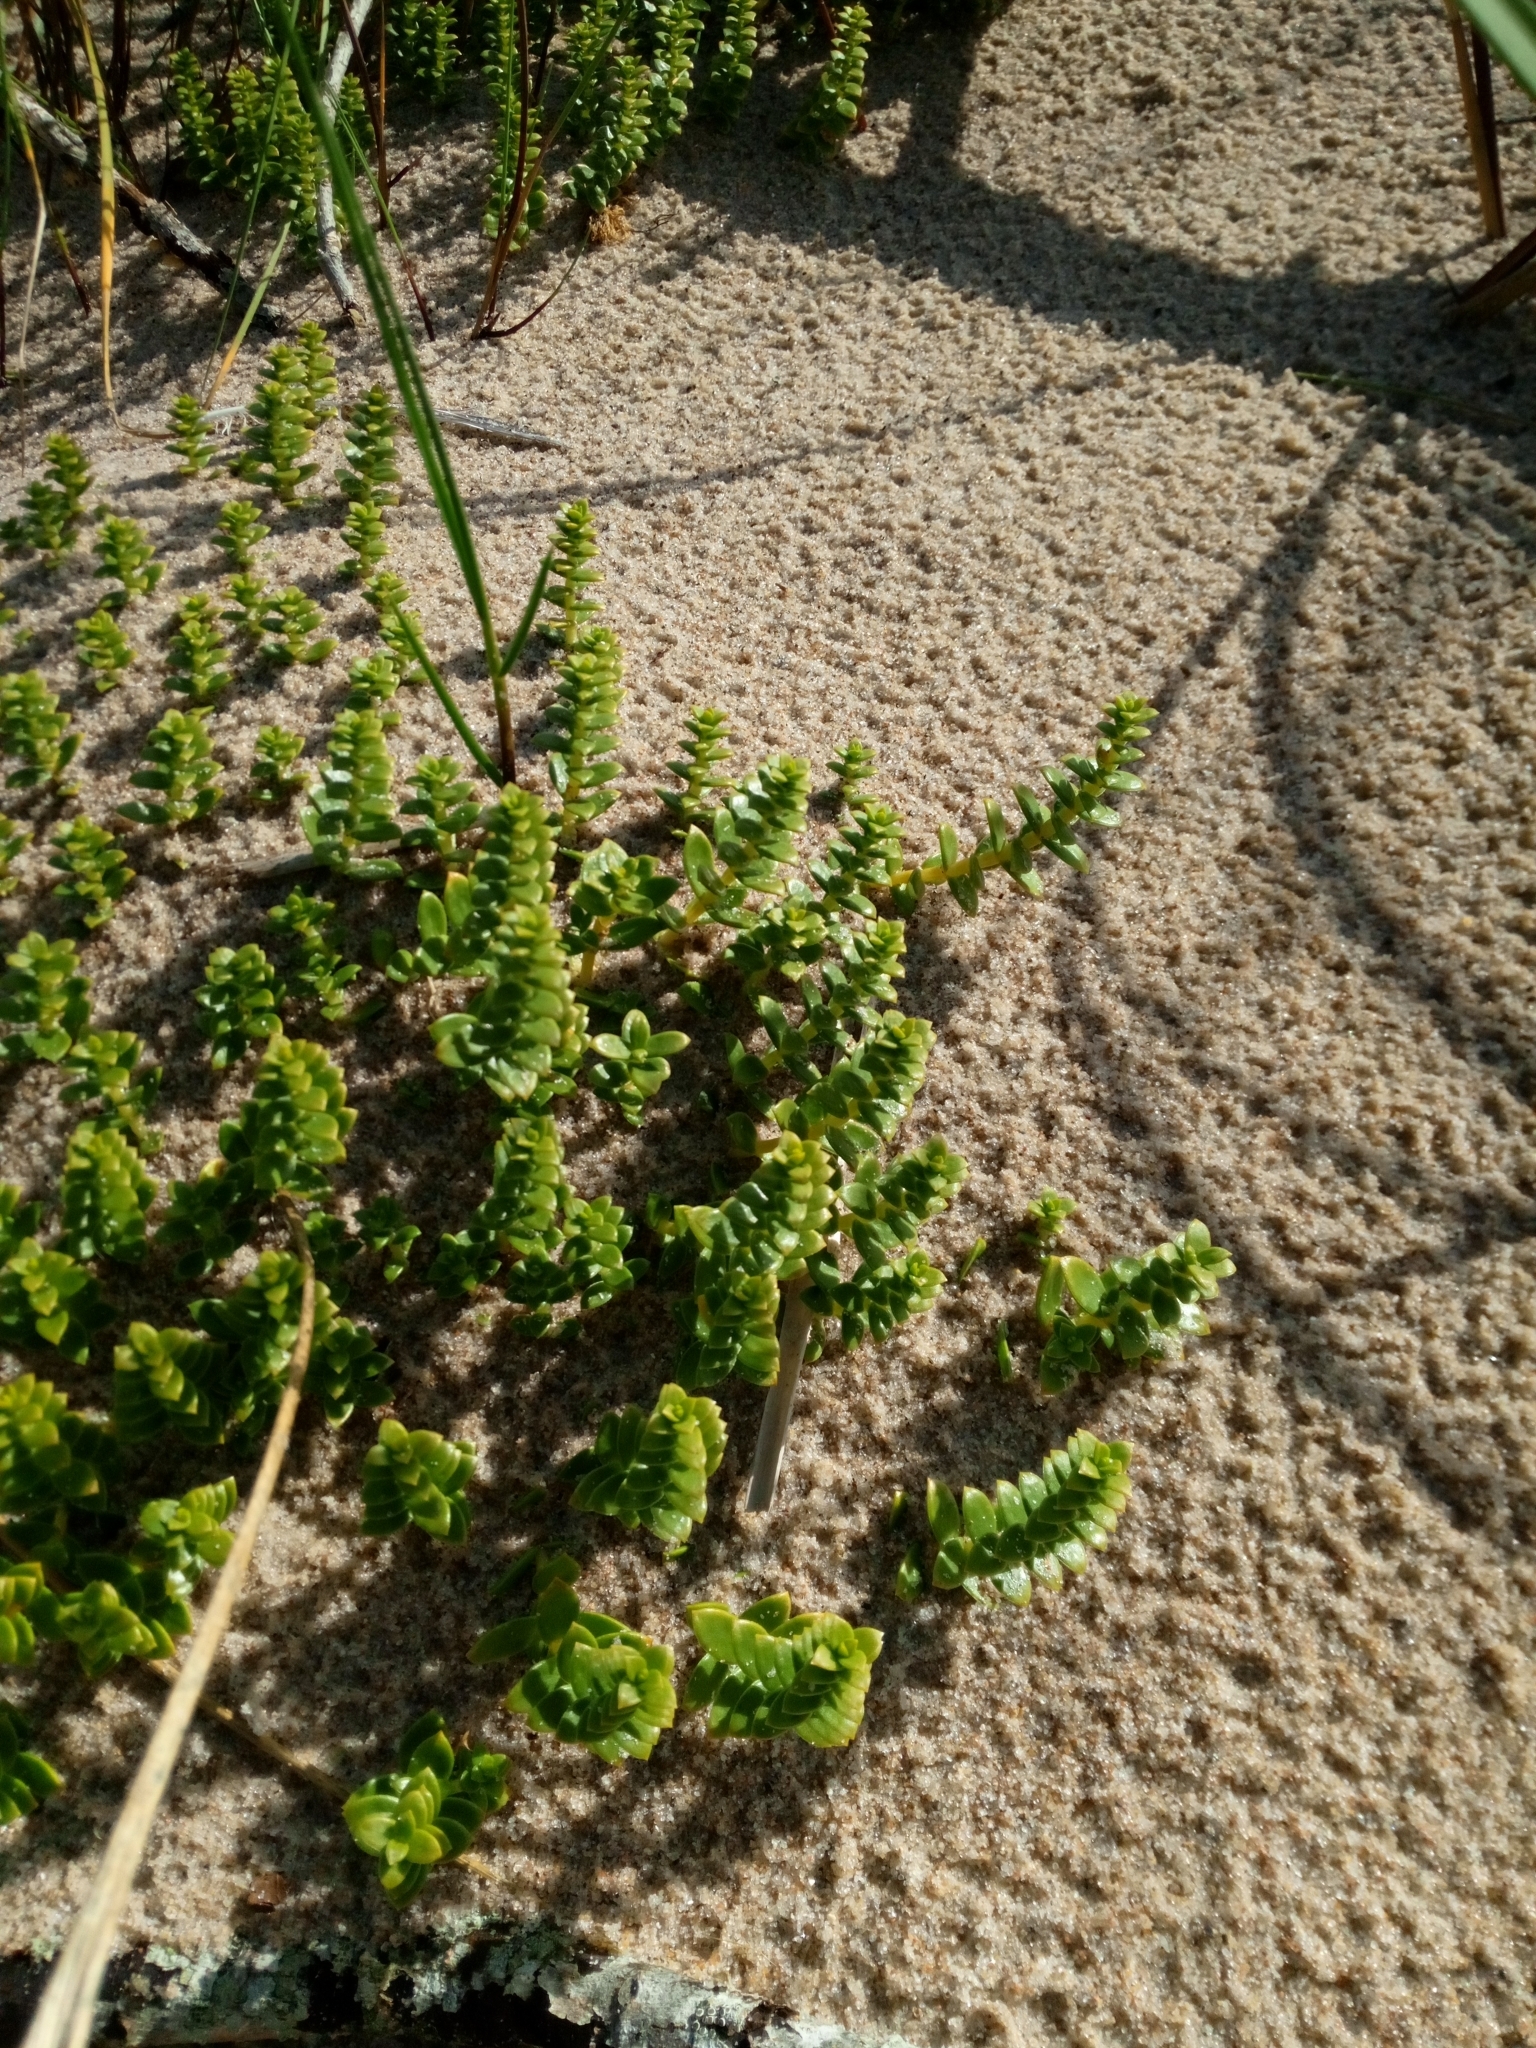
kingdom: Plantae
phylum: Tracheophyta
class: Magnoliopsida
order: Caryophyllales
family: Caryophyllaceae
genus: Honckenya
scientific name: Honckenya peploides
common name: Sea sandwort
